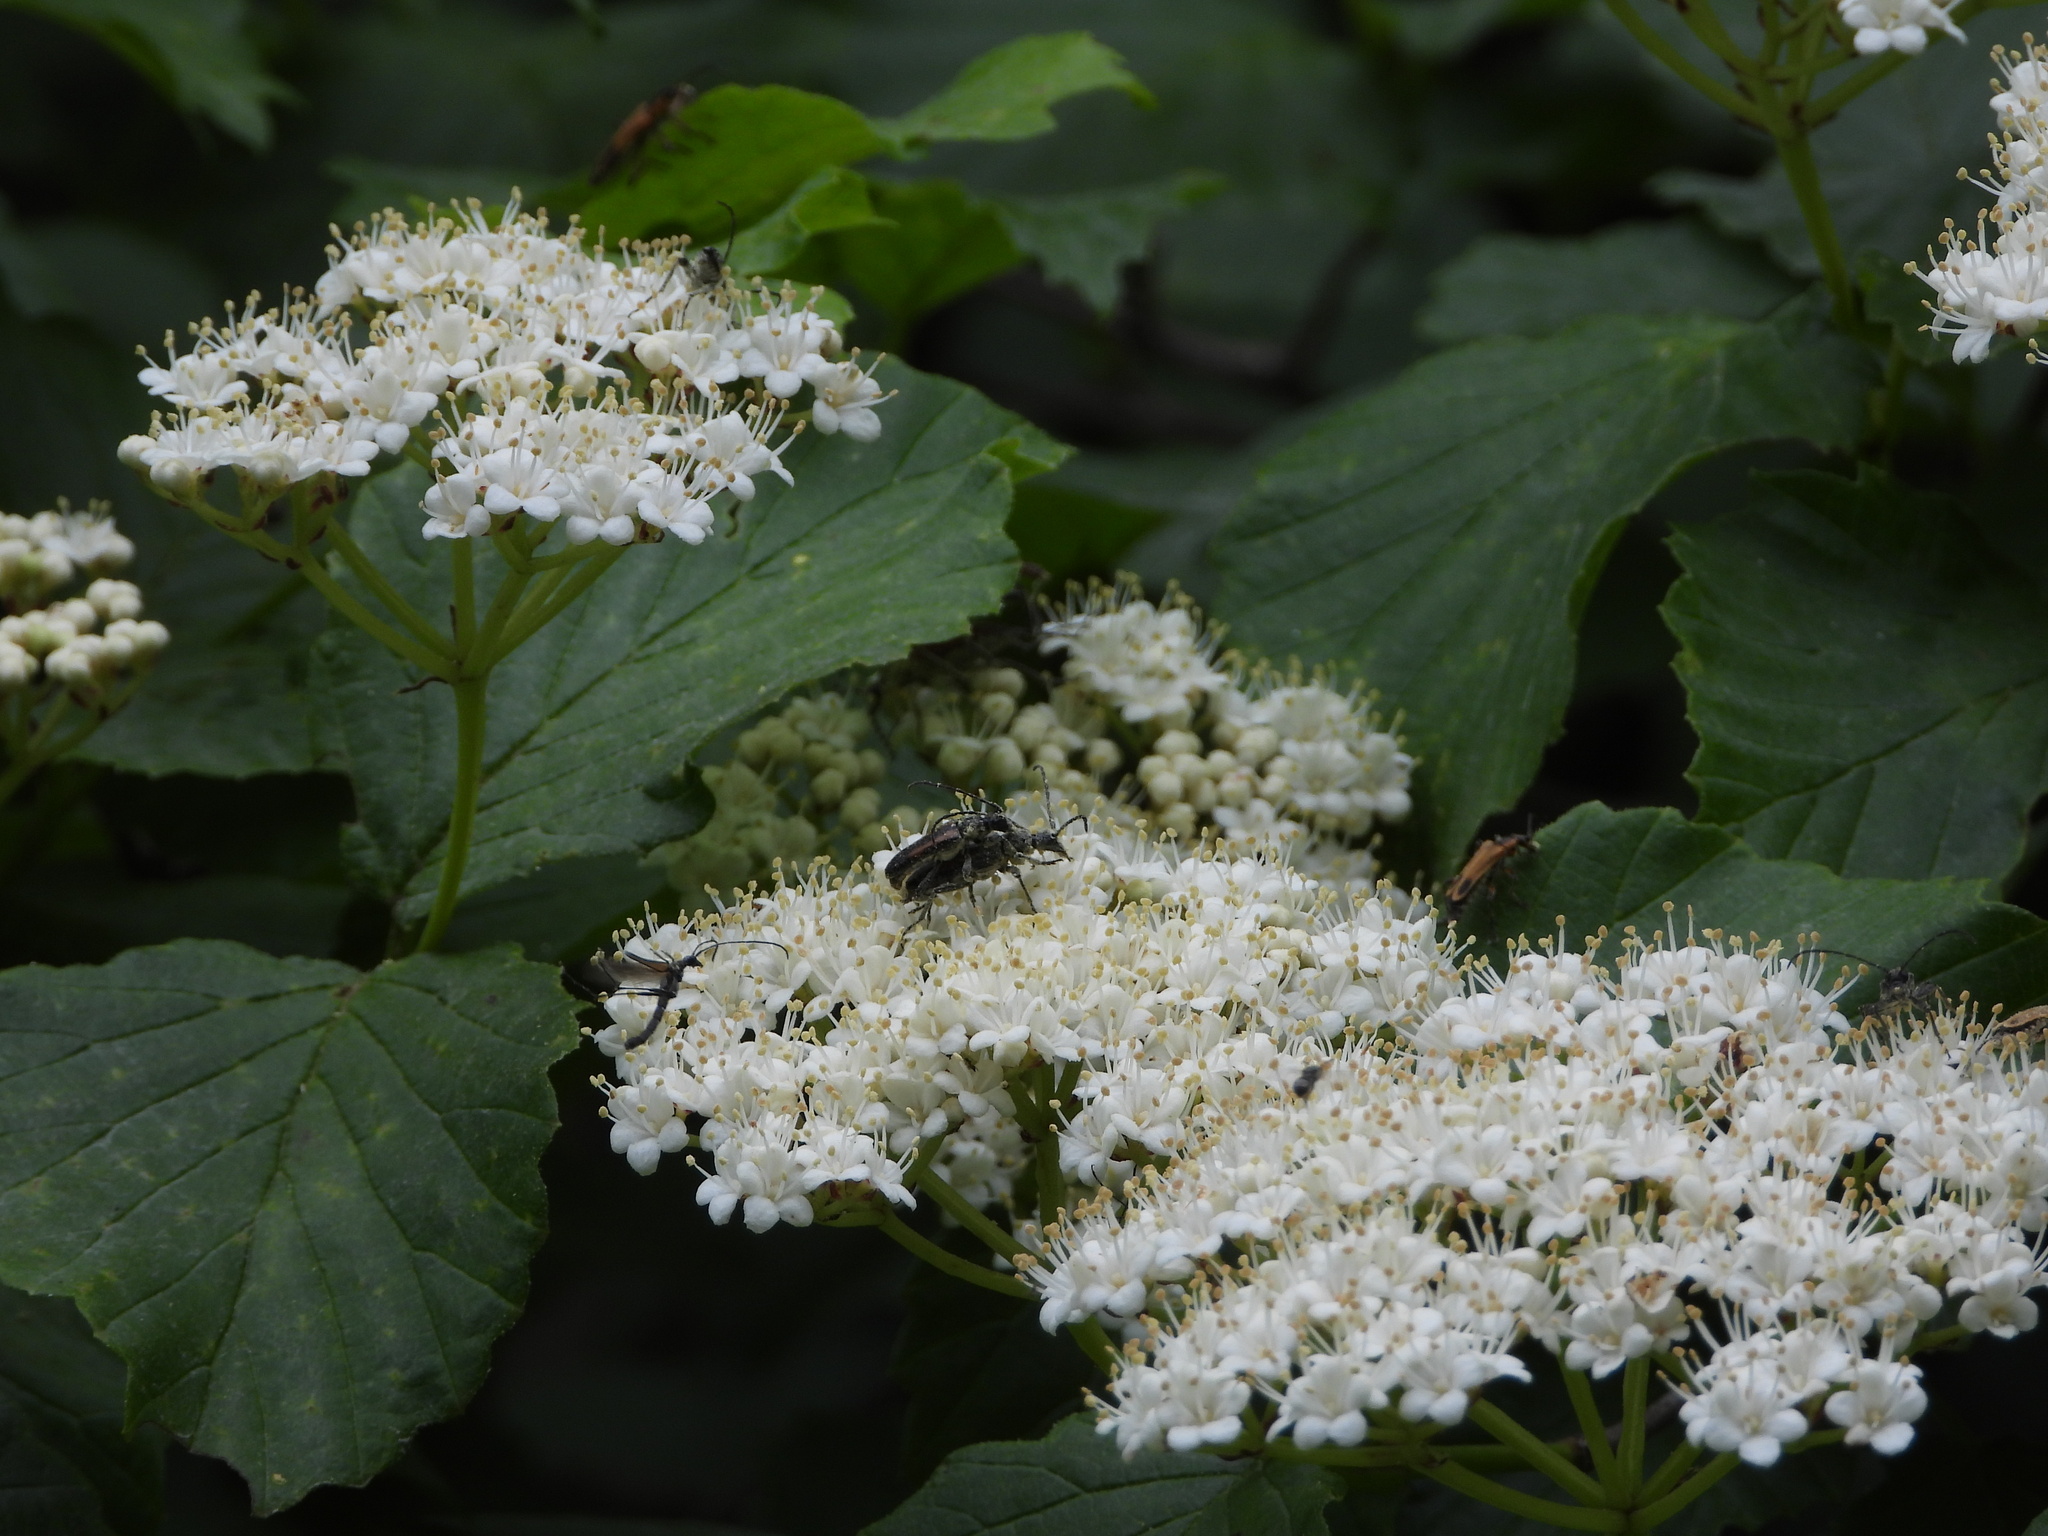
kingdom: Animalia
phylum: Arthropoda
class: Insecta
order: Coleoptera
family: Cerambycidae
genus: Strangalepta
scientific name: Strangalepta abbreviata
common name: Strangalepta flower longhorn beetle
